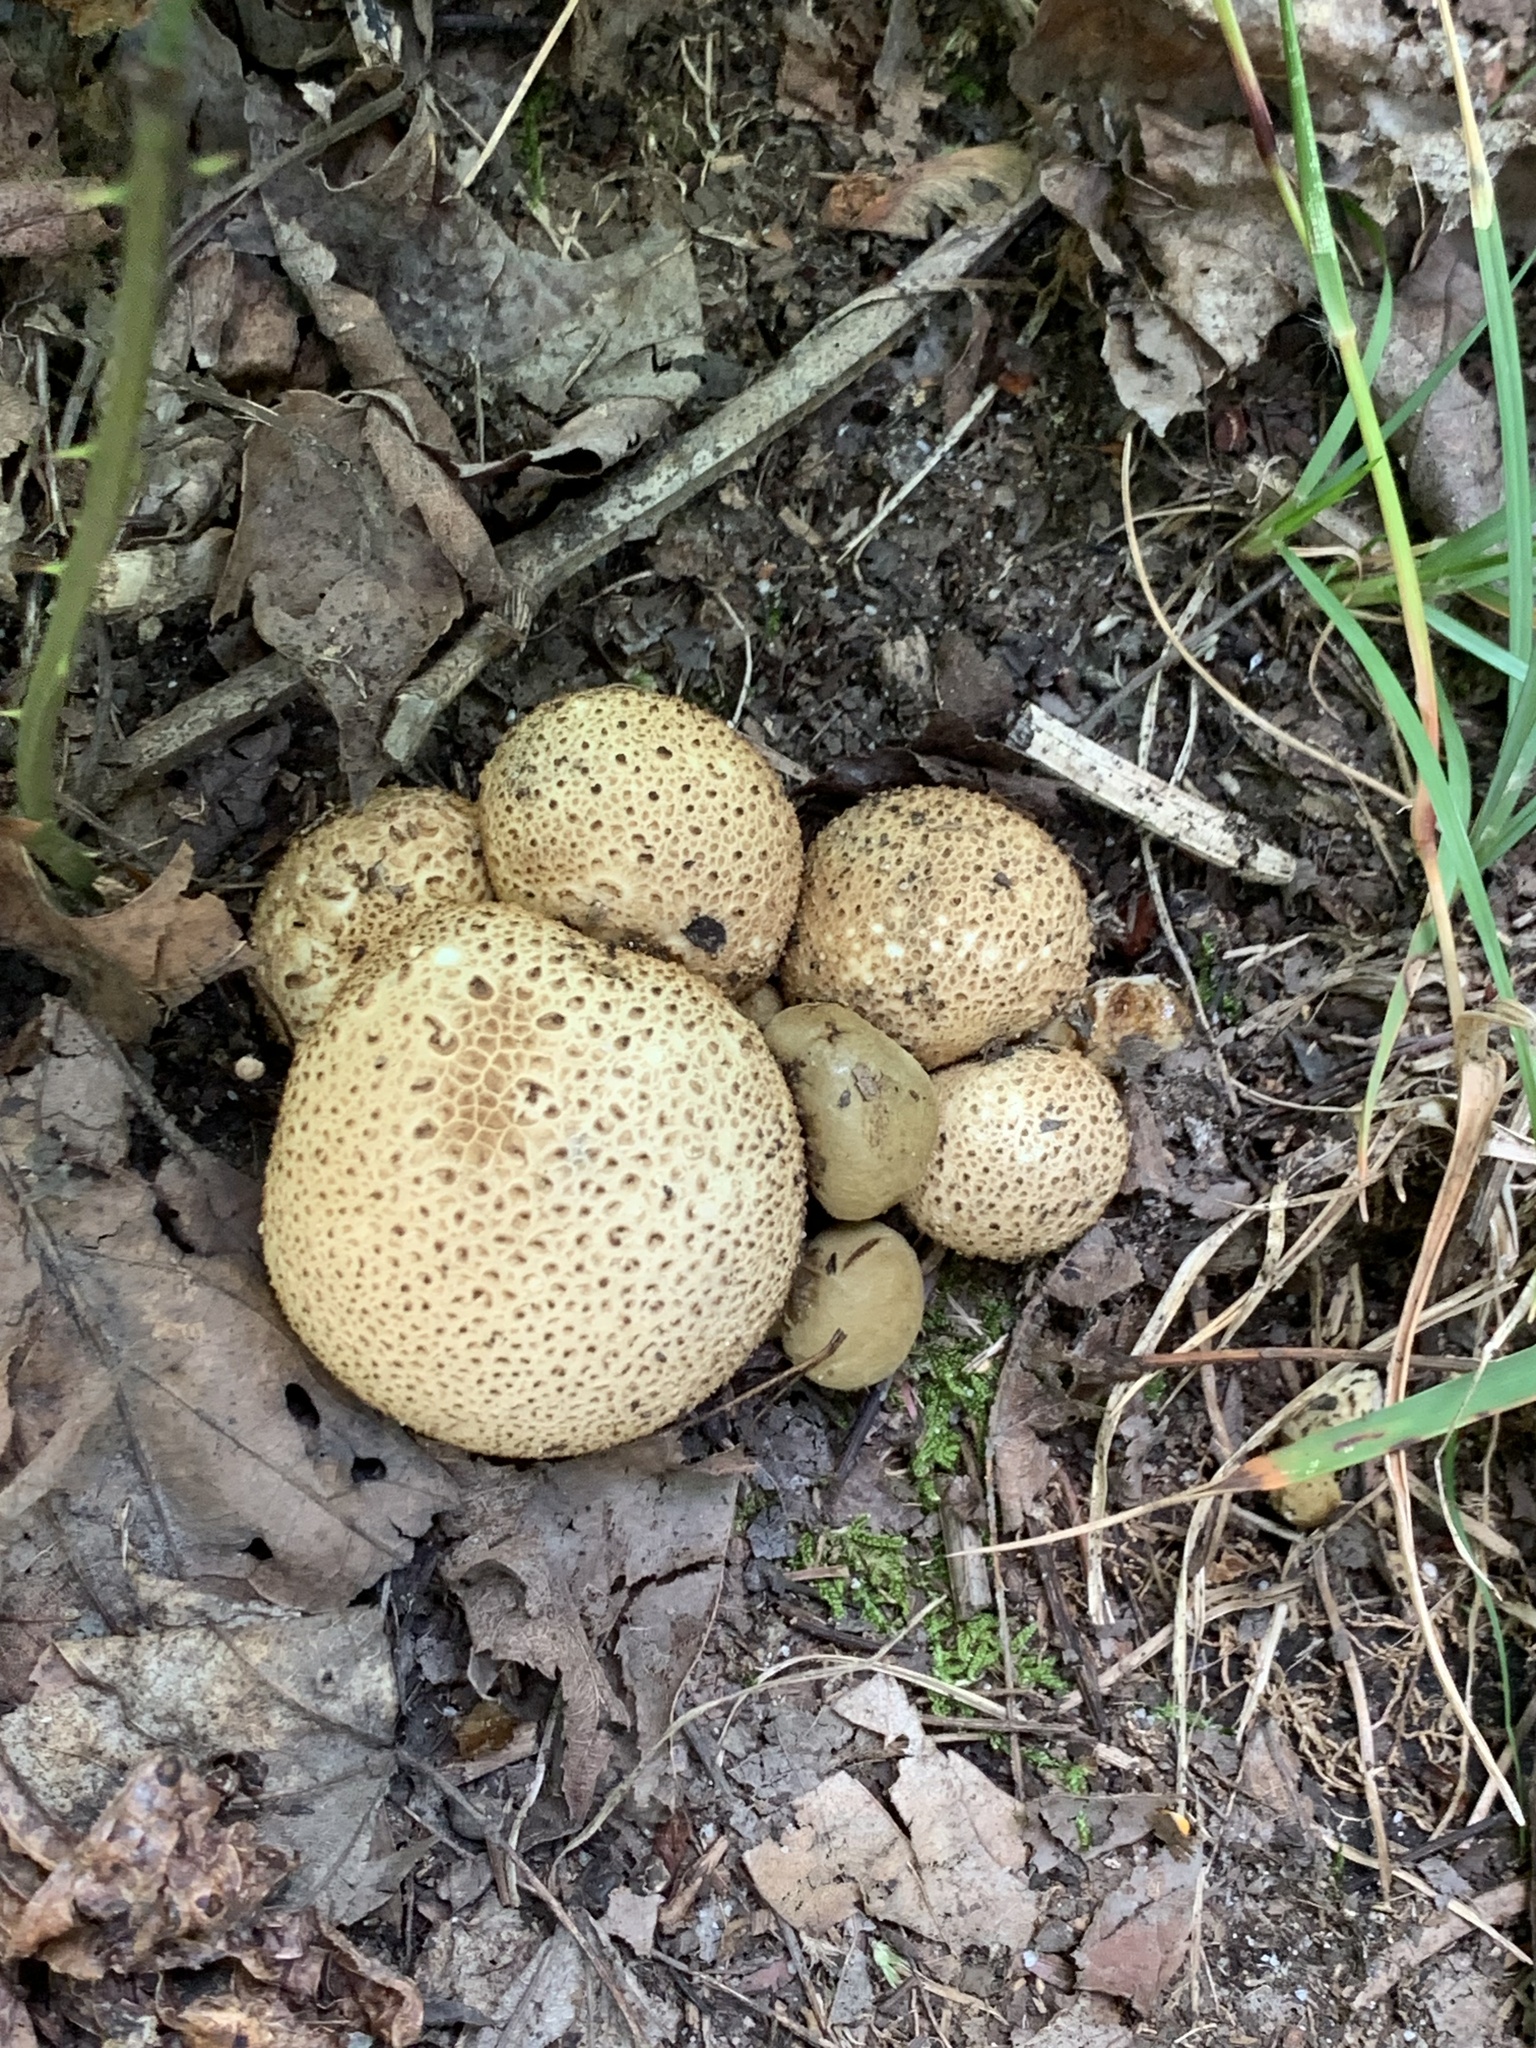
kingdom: Fungi
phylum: Basidiomycota
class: Agaricomycetes
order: Boletales
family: Boletaceae
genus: Pseudoboletus
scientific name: Pseudoboletus parasiticus
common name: Parasitic bolete
